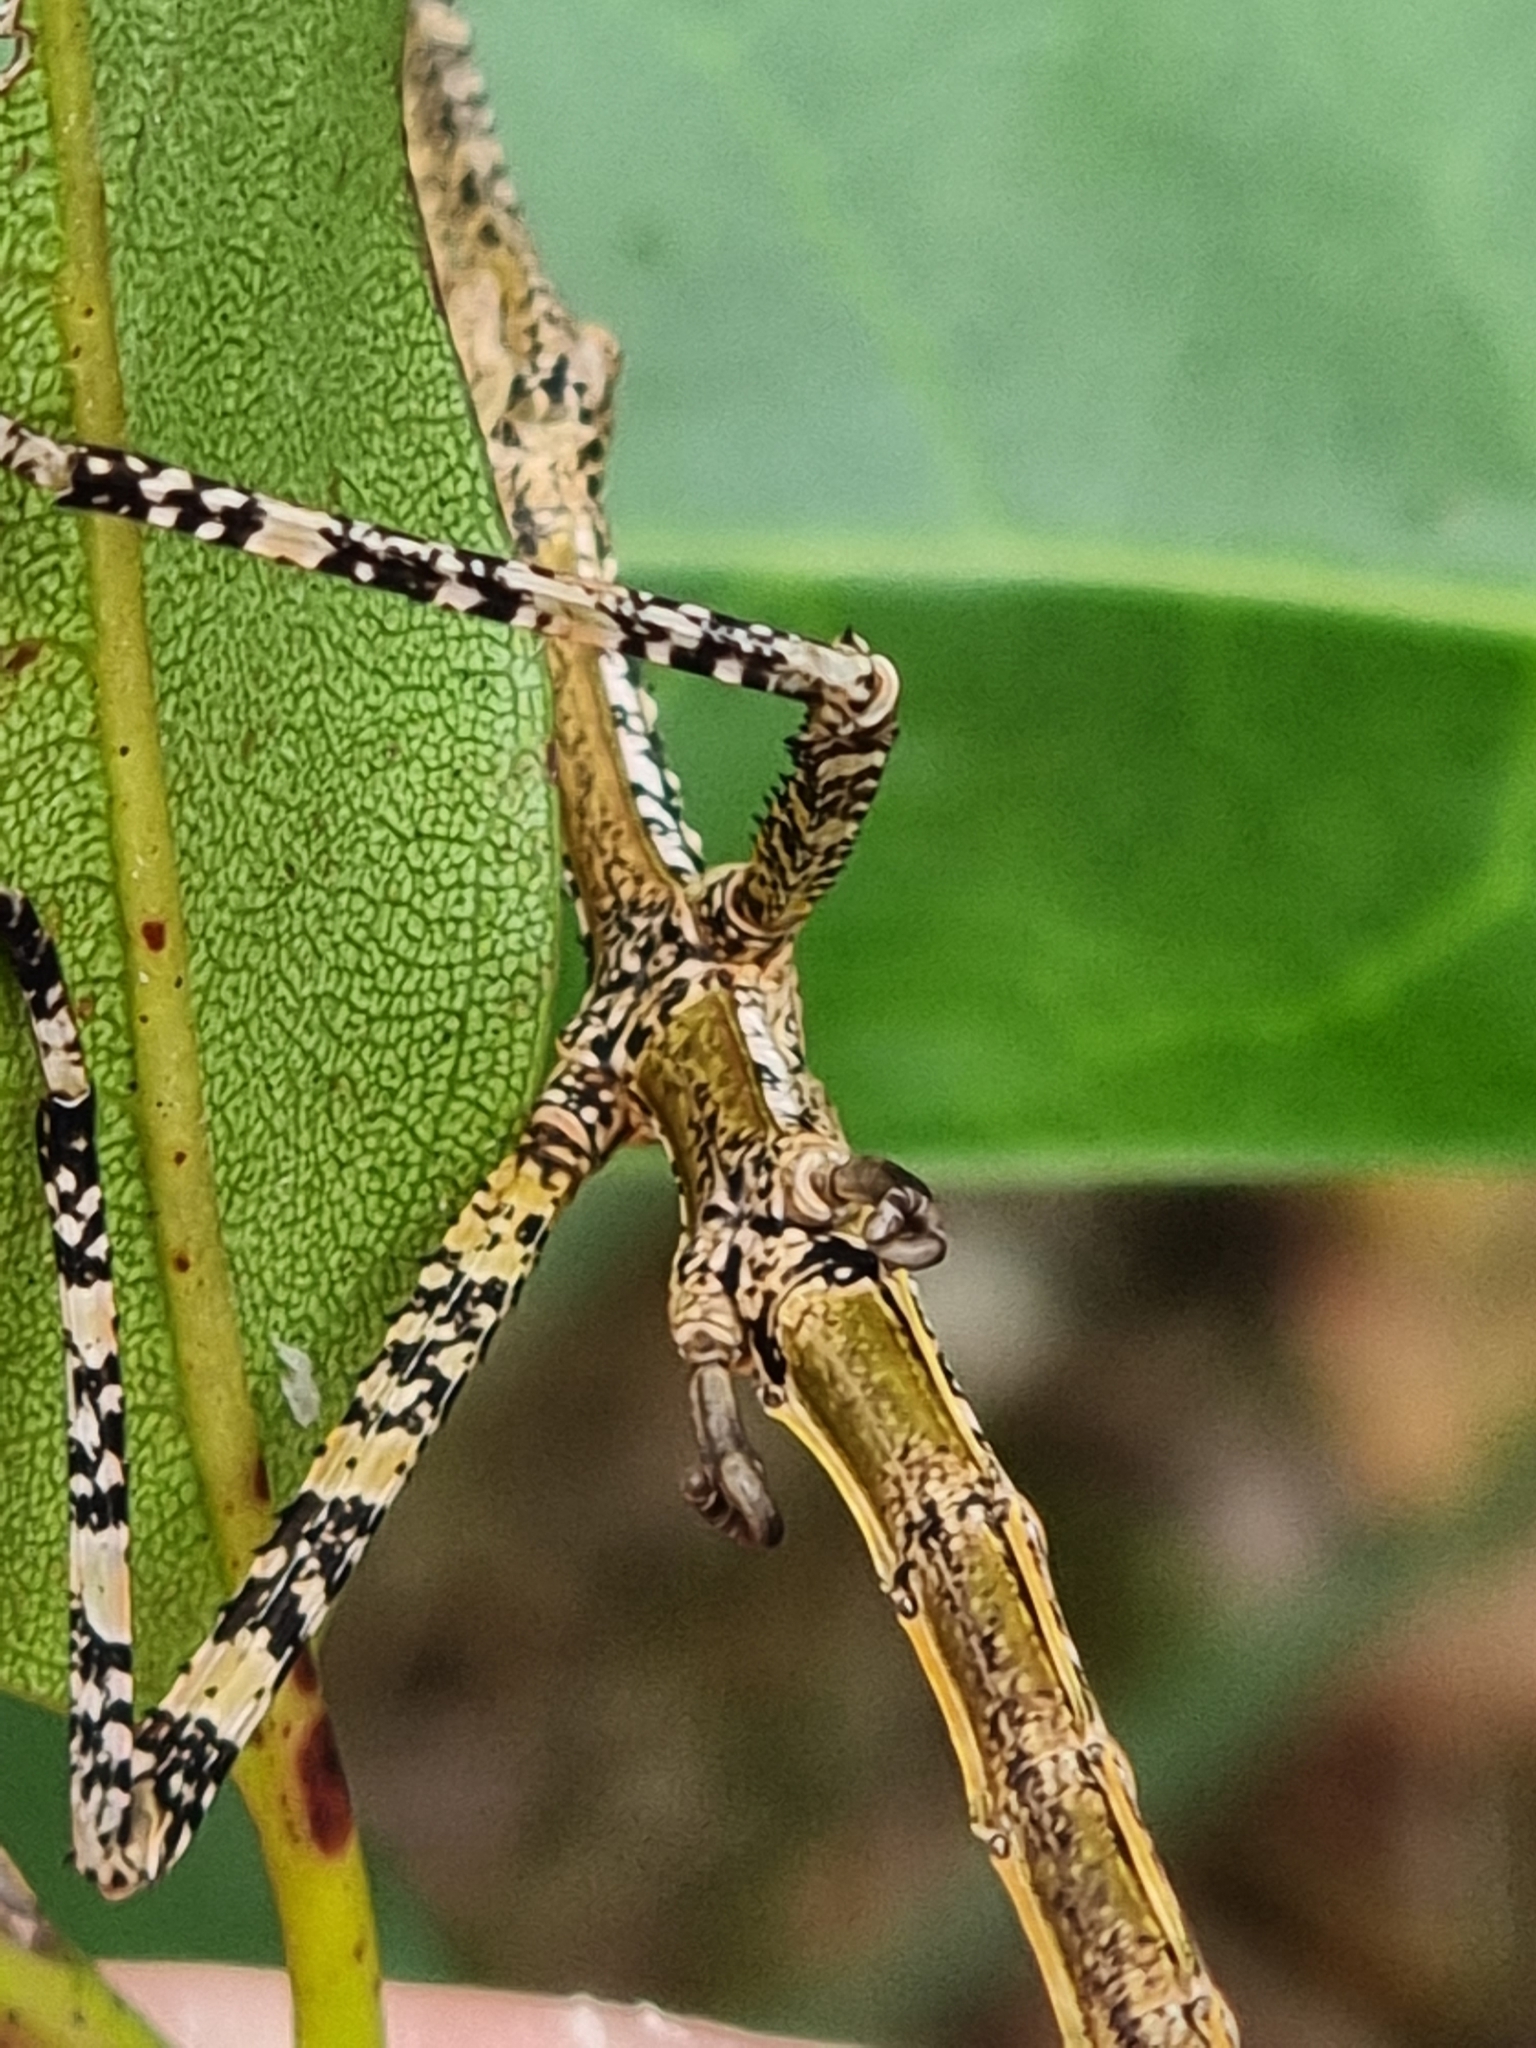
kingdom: Animalia
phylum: Arthropoda
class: Insecta
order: Phasmida
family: Phasmatidae
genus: Anchiale
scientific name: Anchiale austrotessulata
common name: Tessellated stick-insect
